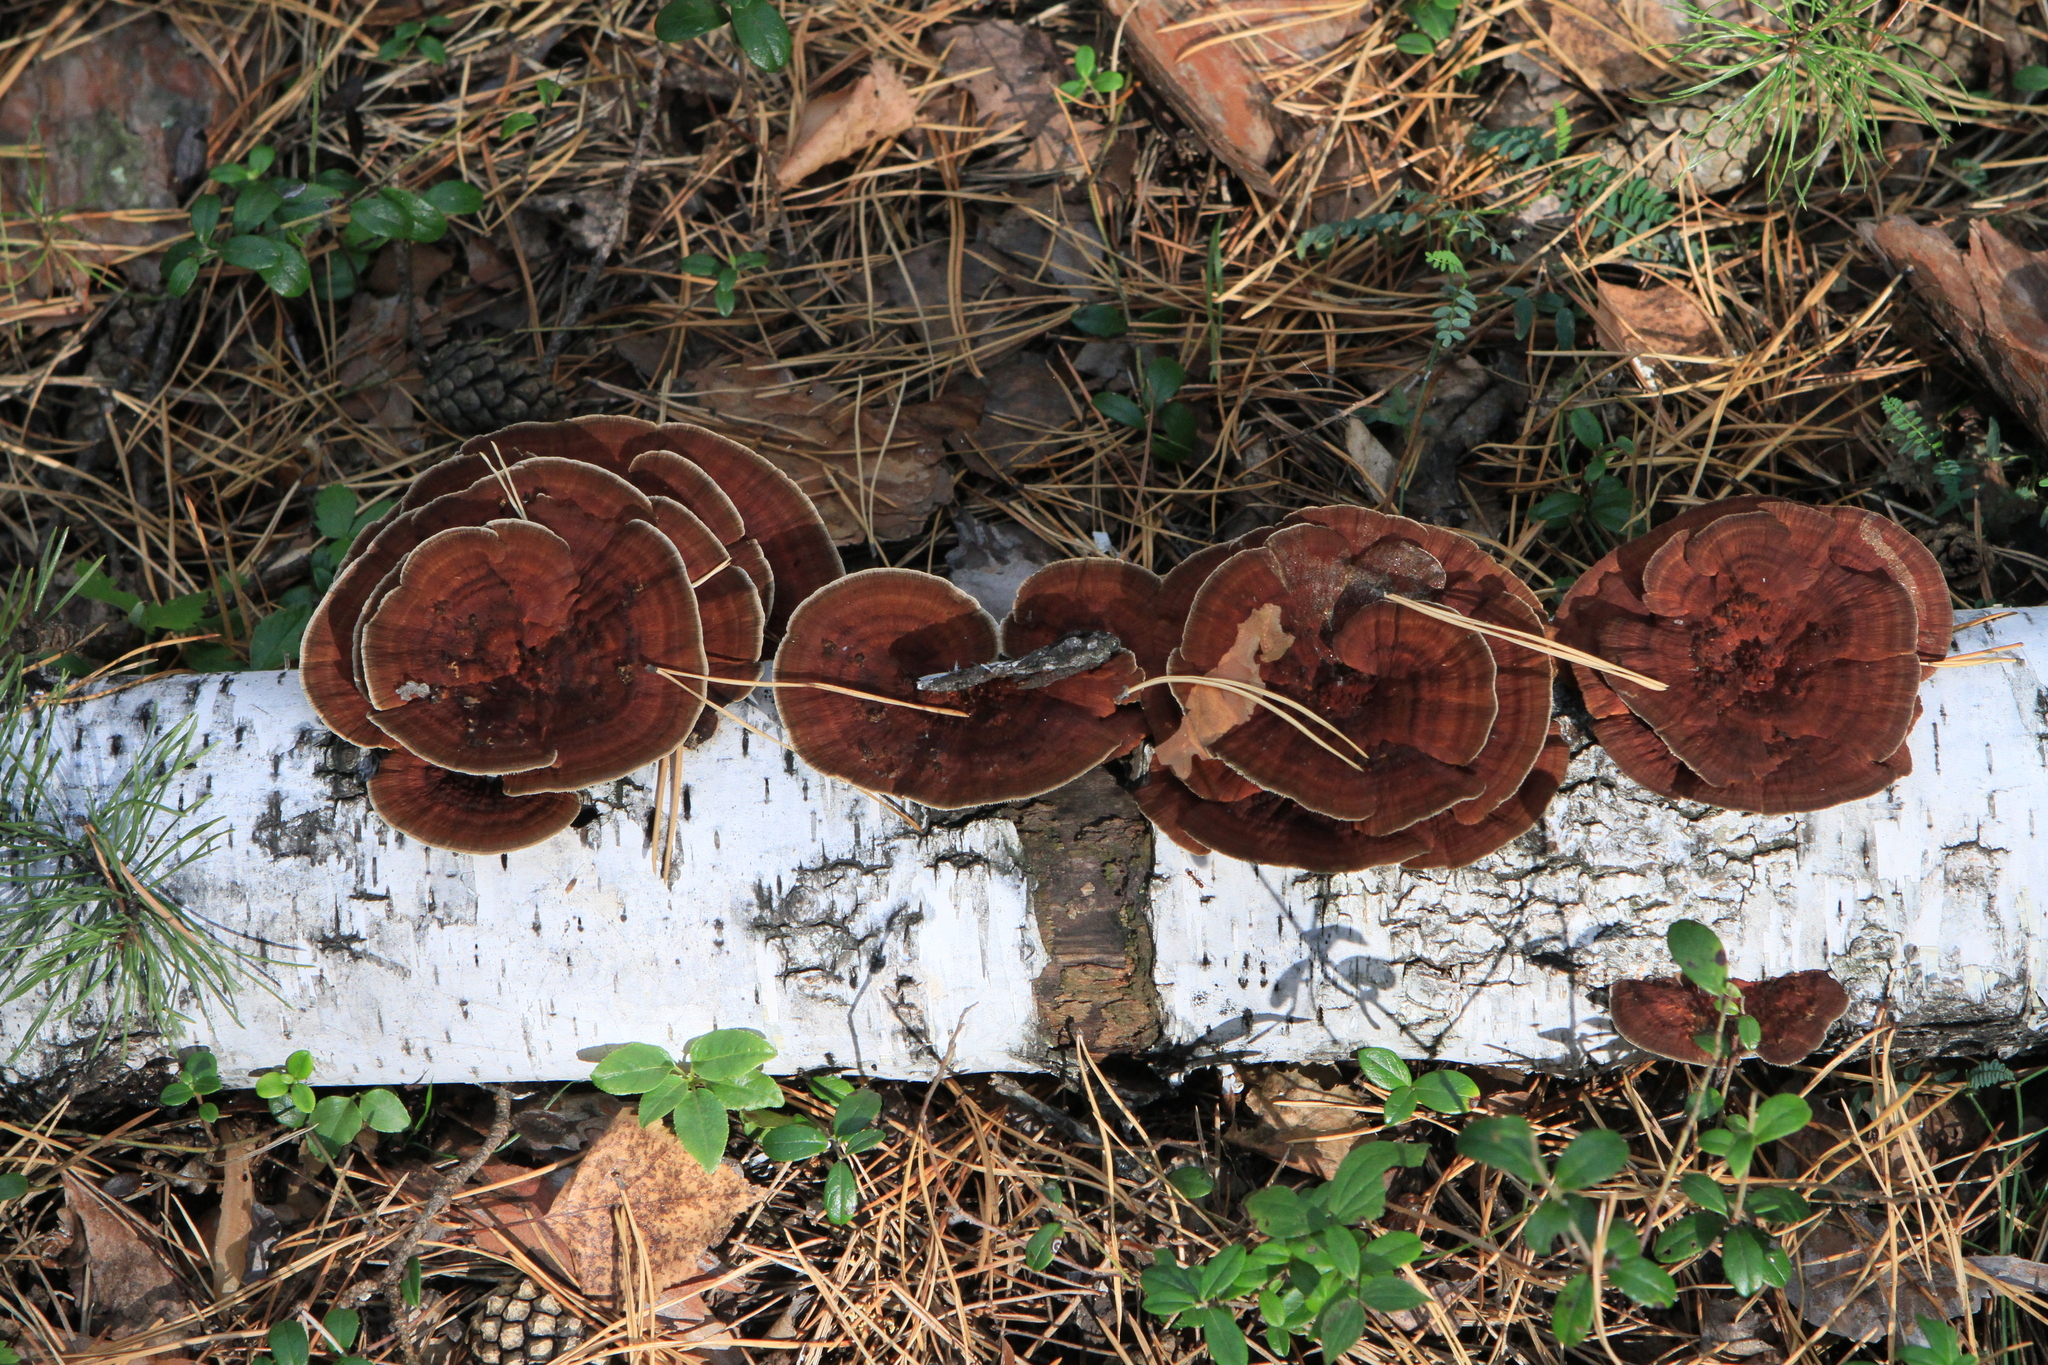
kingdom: Fungi
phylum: Basidiomycota
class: Agaricomycetes
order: Polyporales
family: Polyporaceae
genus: Daedaleopsis
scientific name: Daedaleopsis tricolor
